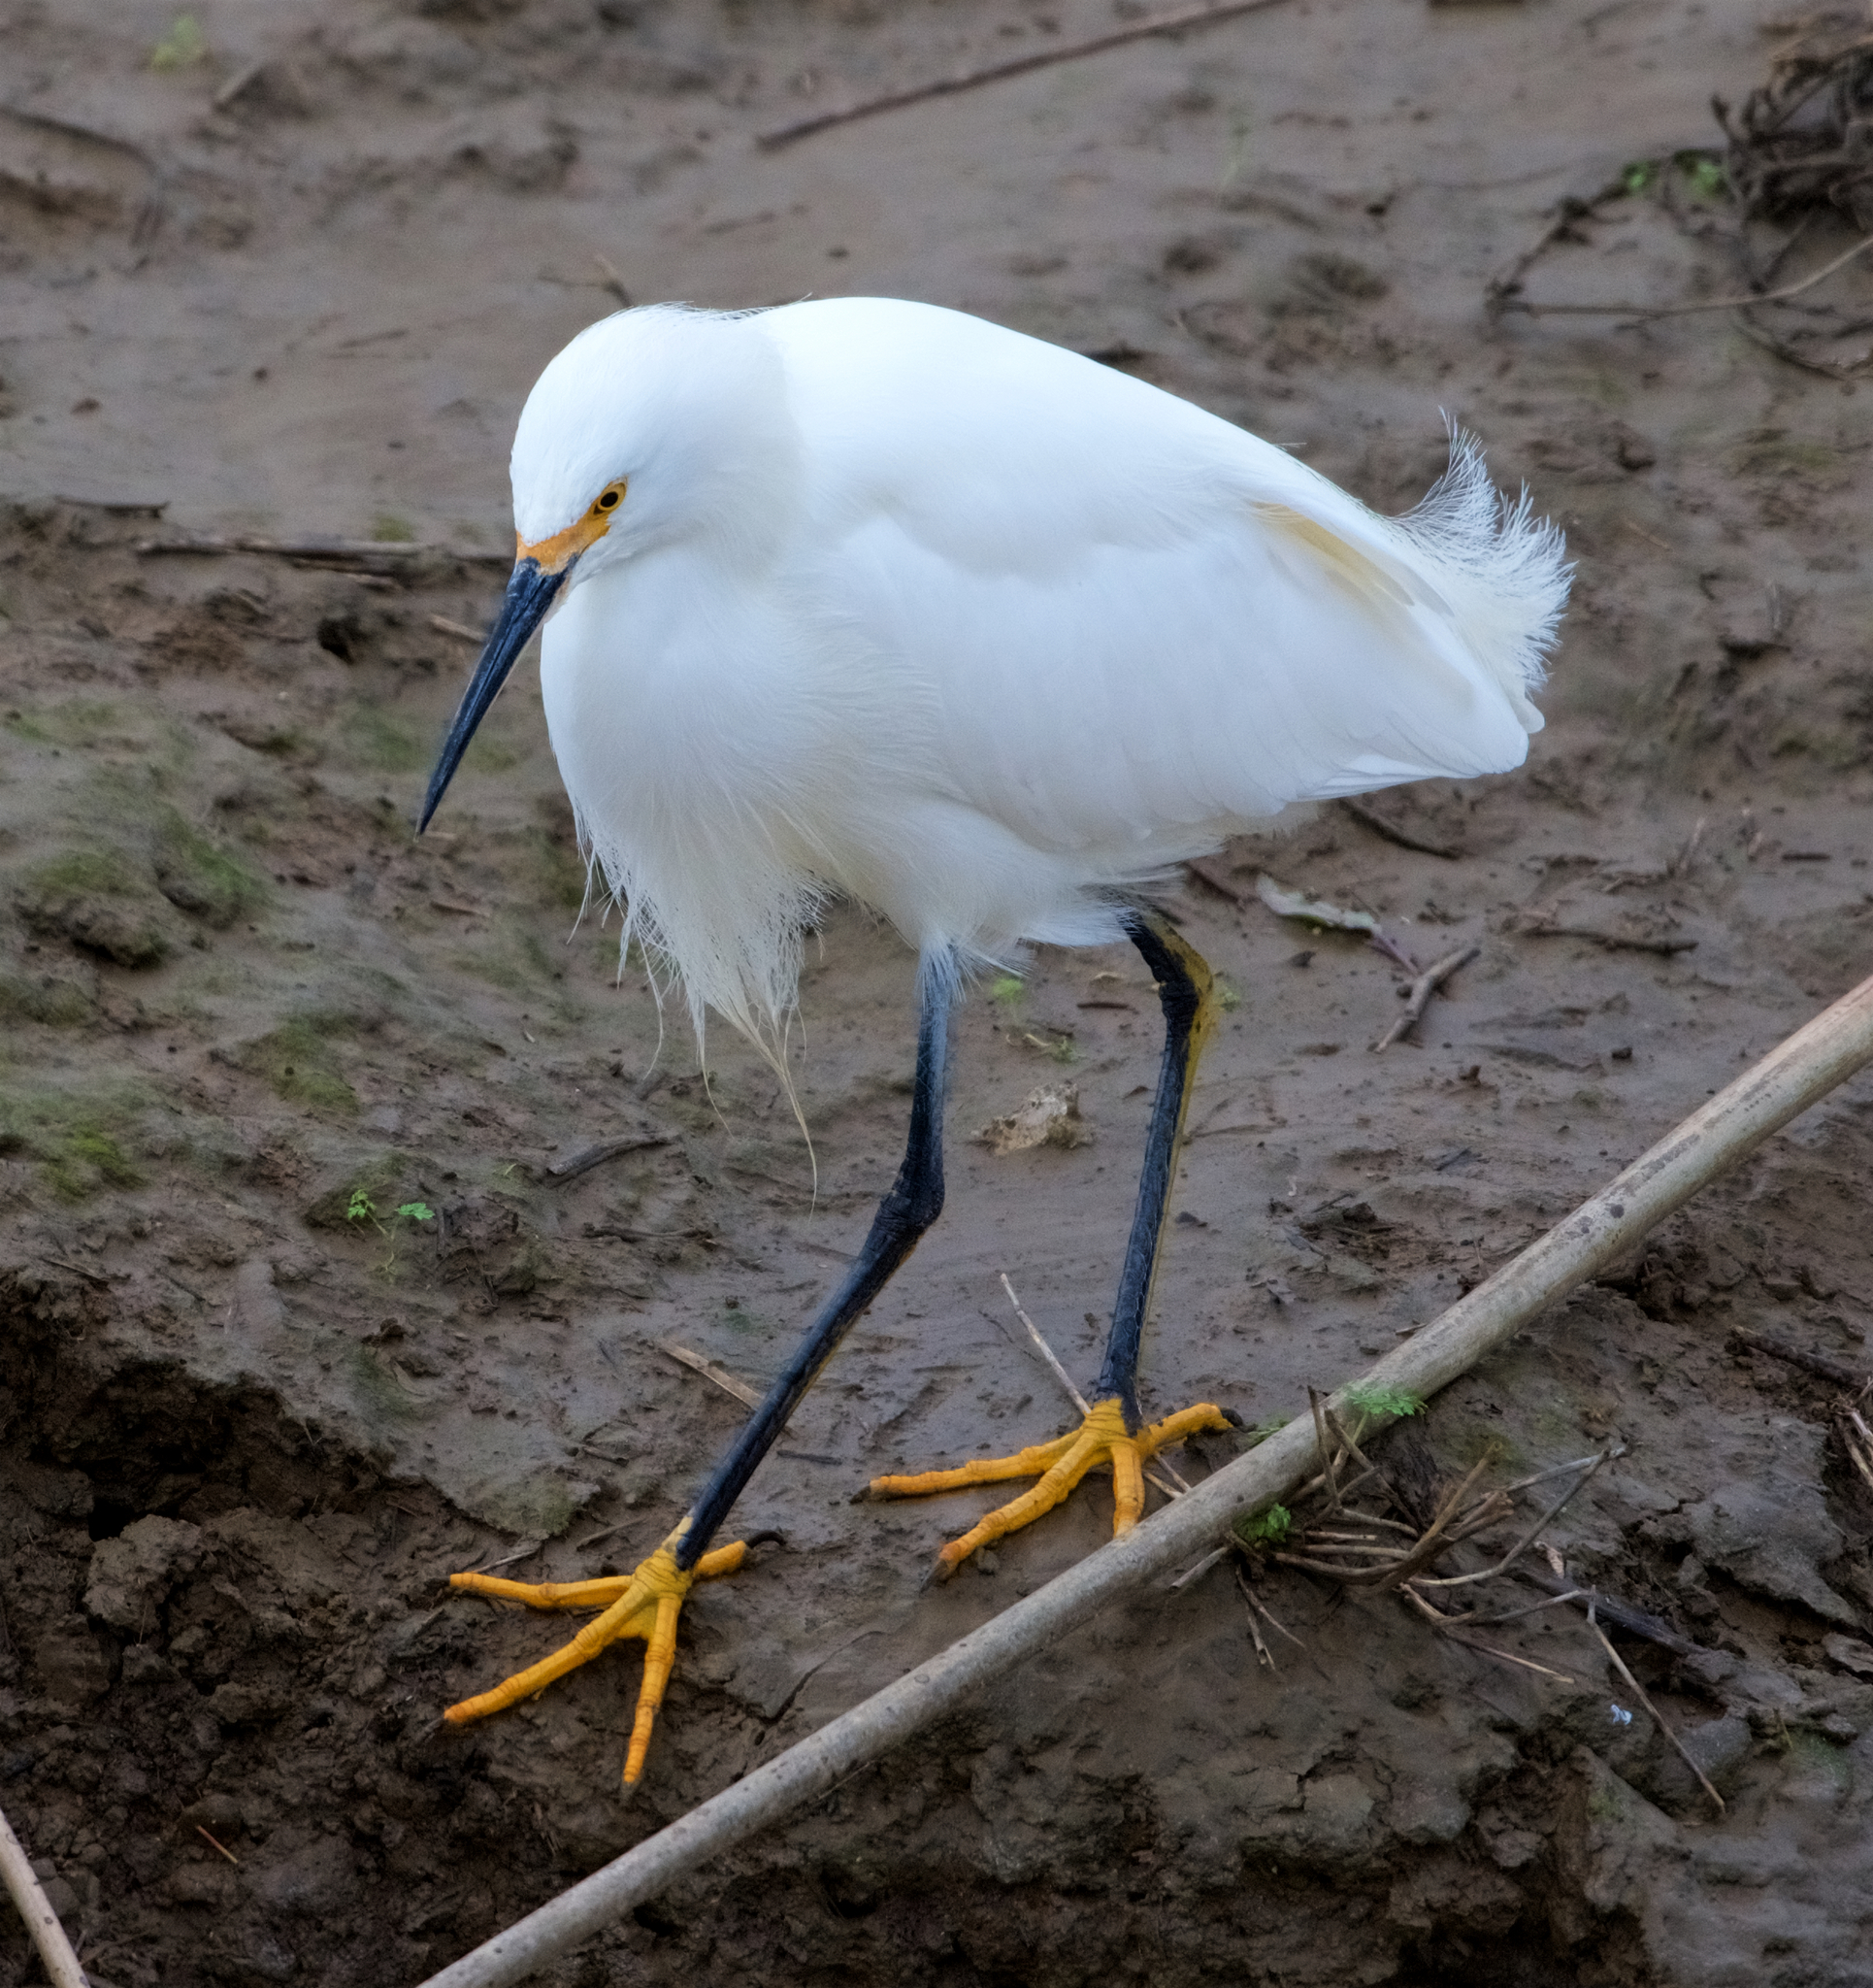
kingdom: Animalia
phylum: Chordata
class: Aves
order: Pelecaniformes
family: Ardeidae
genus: Egretta
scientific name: Egretta thula
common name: Snowy egret
